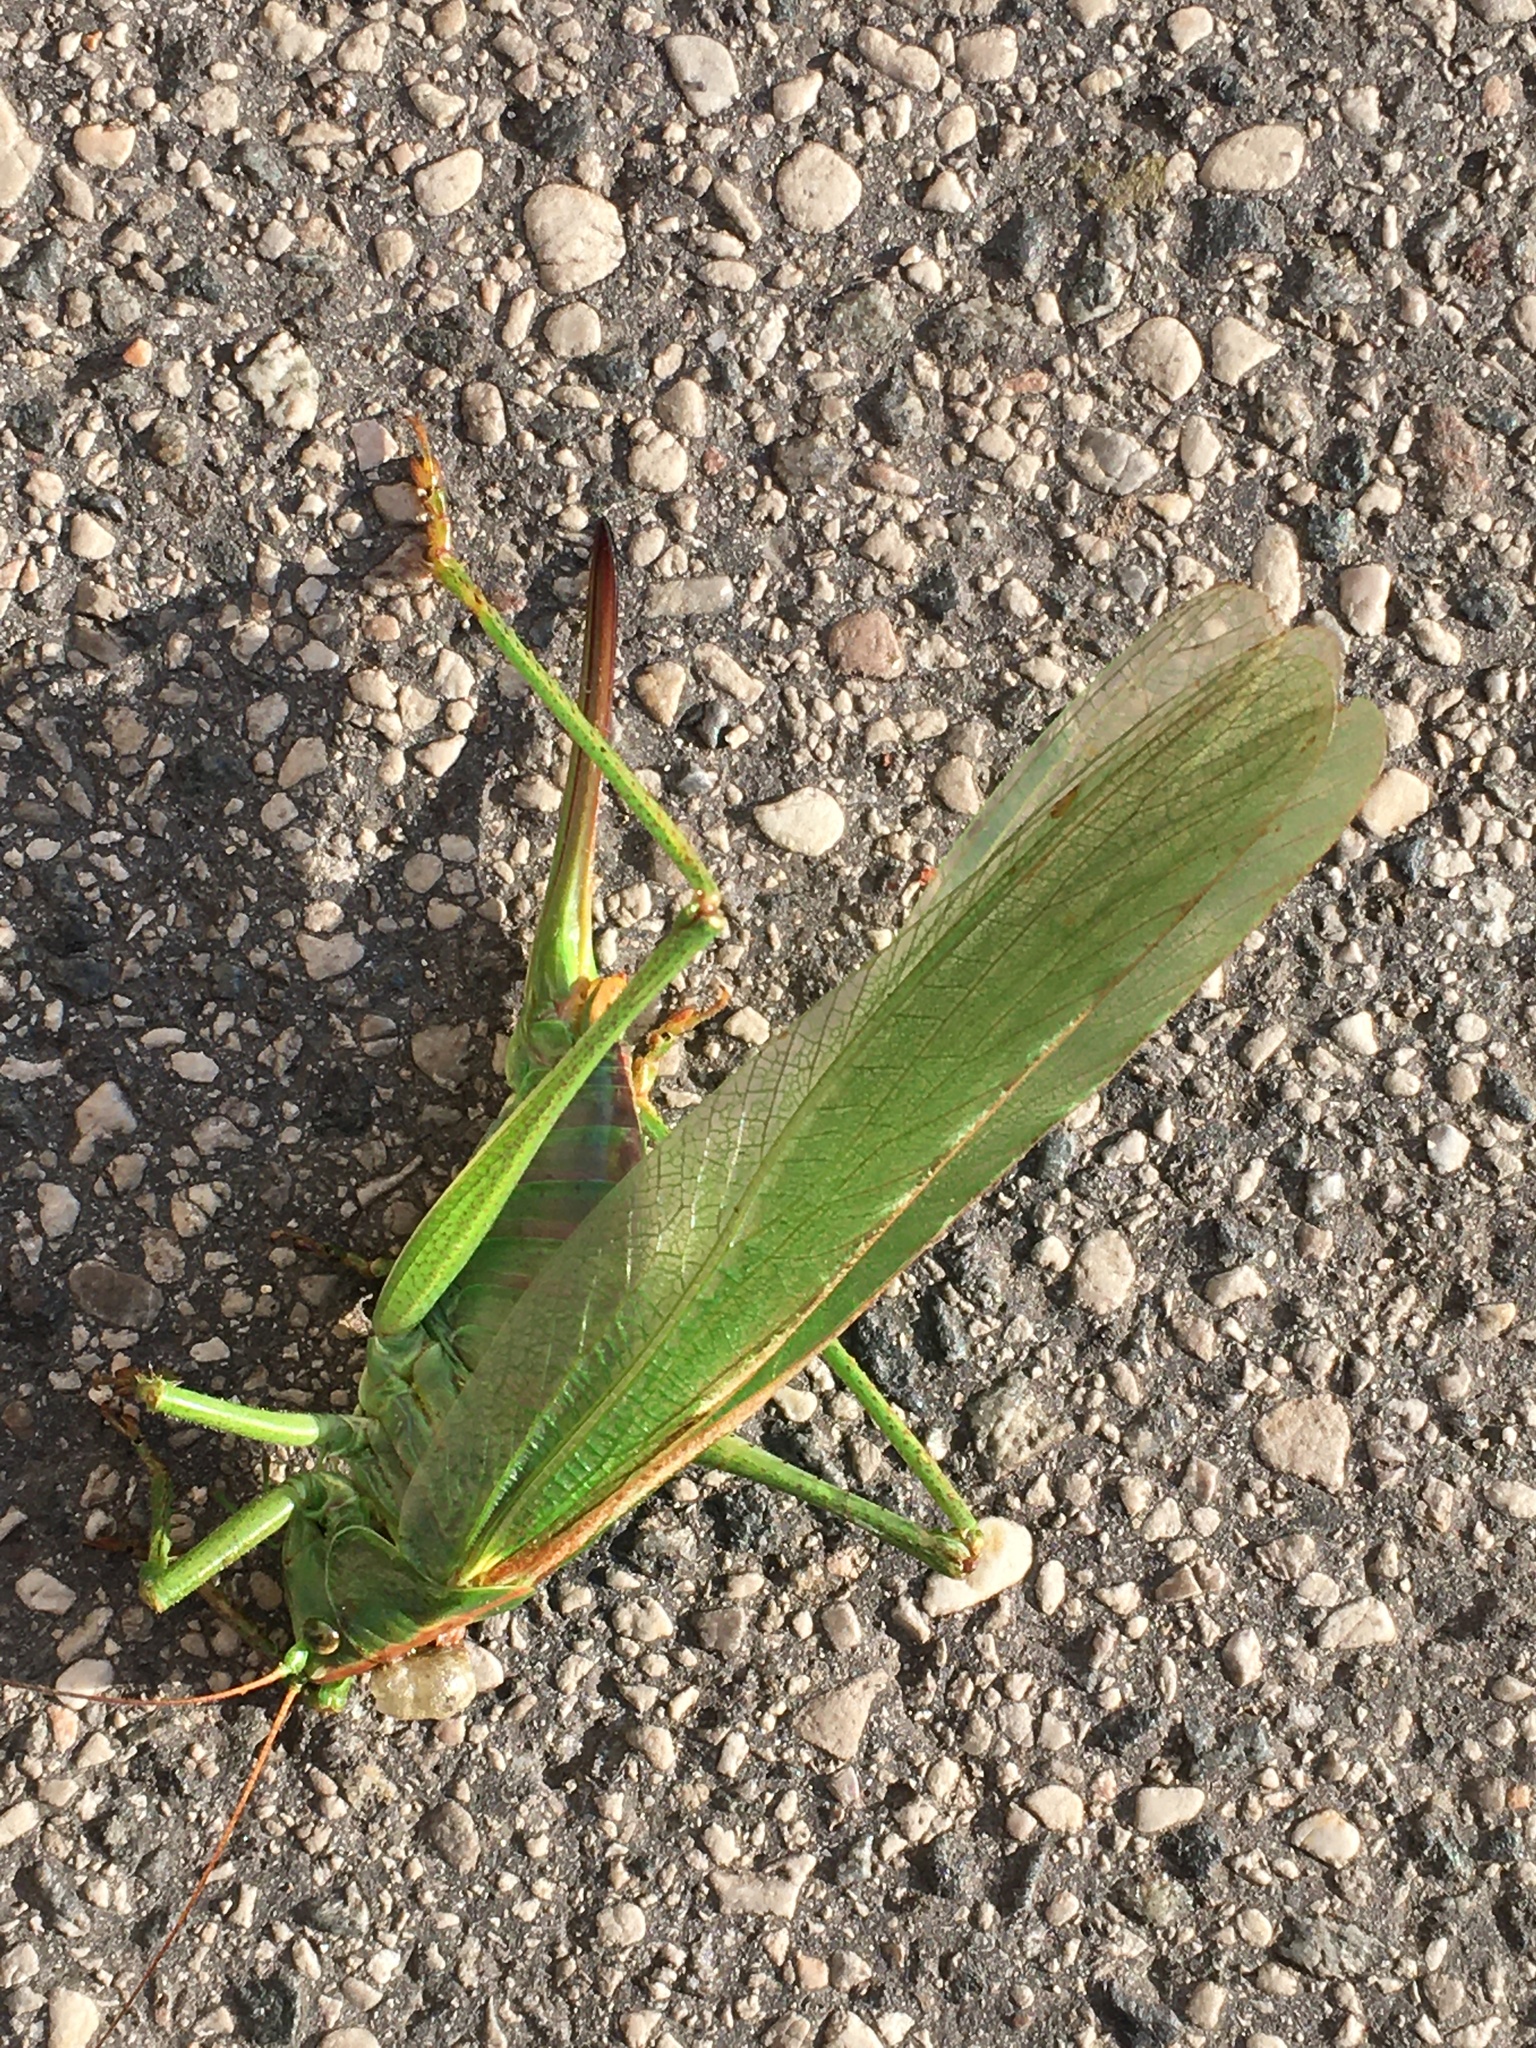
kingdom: Animalia
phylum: Arthropoda
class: Insecta
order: Orthoptera
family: Tettigoniidae
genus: Tettigonia
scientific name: Tettigonia viridissima
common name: Great green bush-cricket
